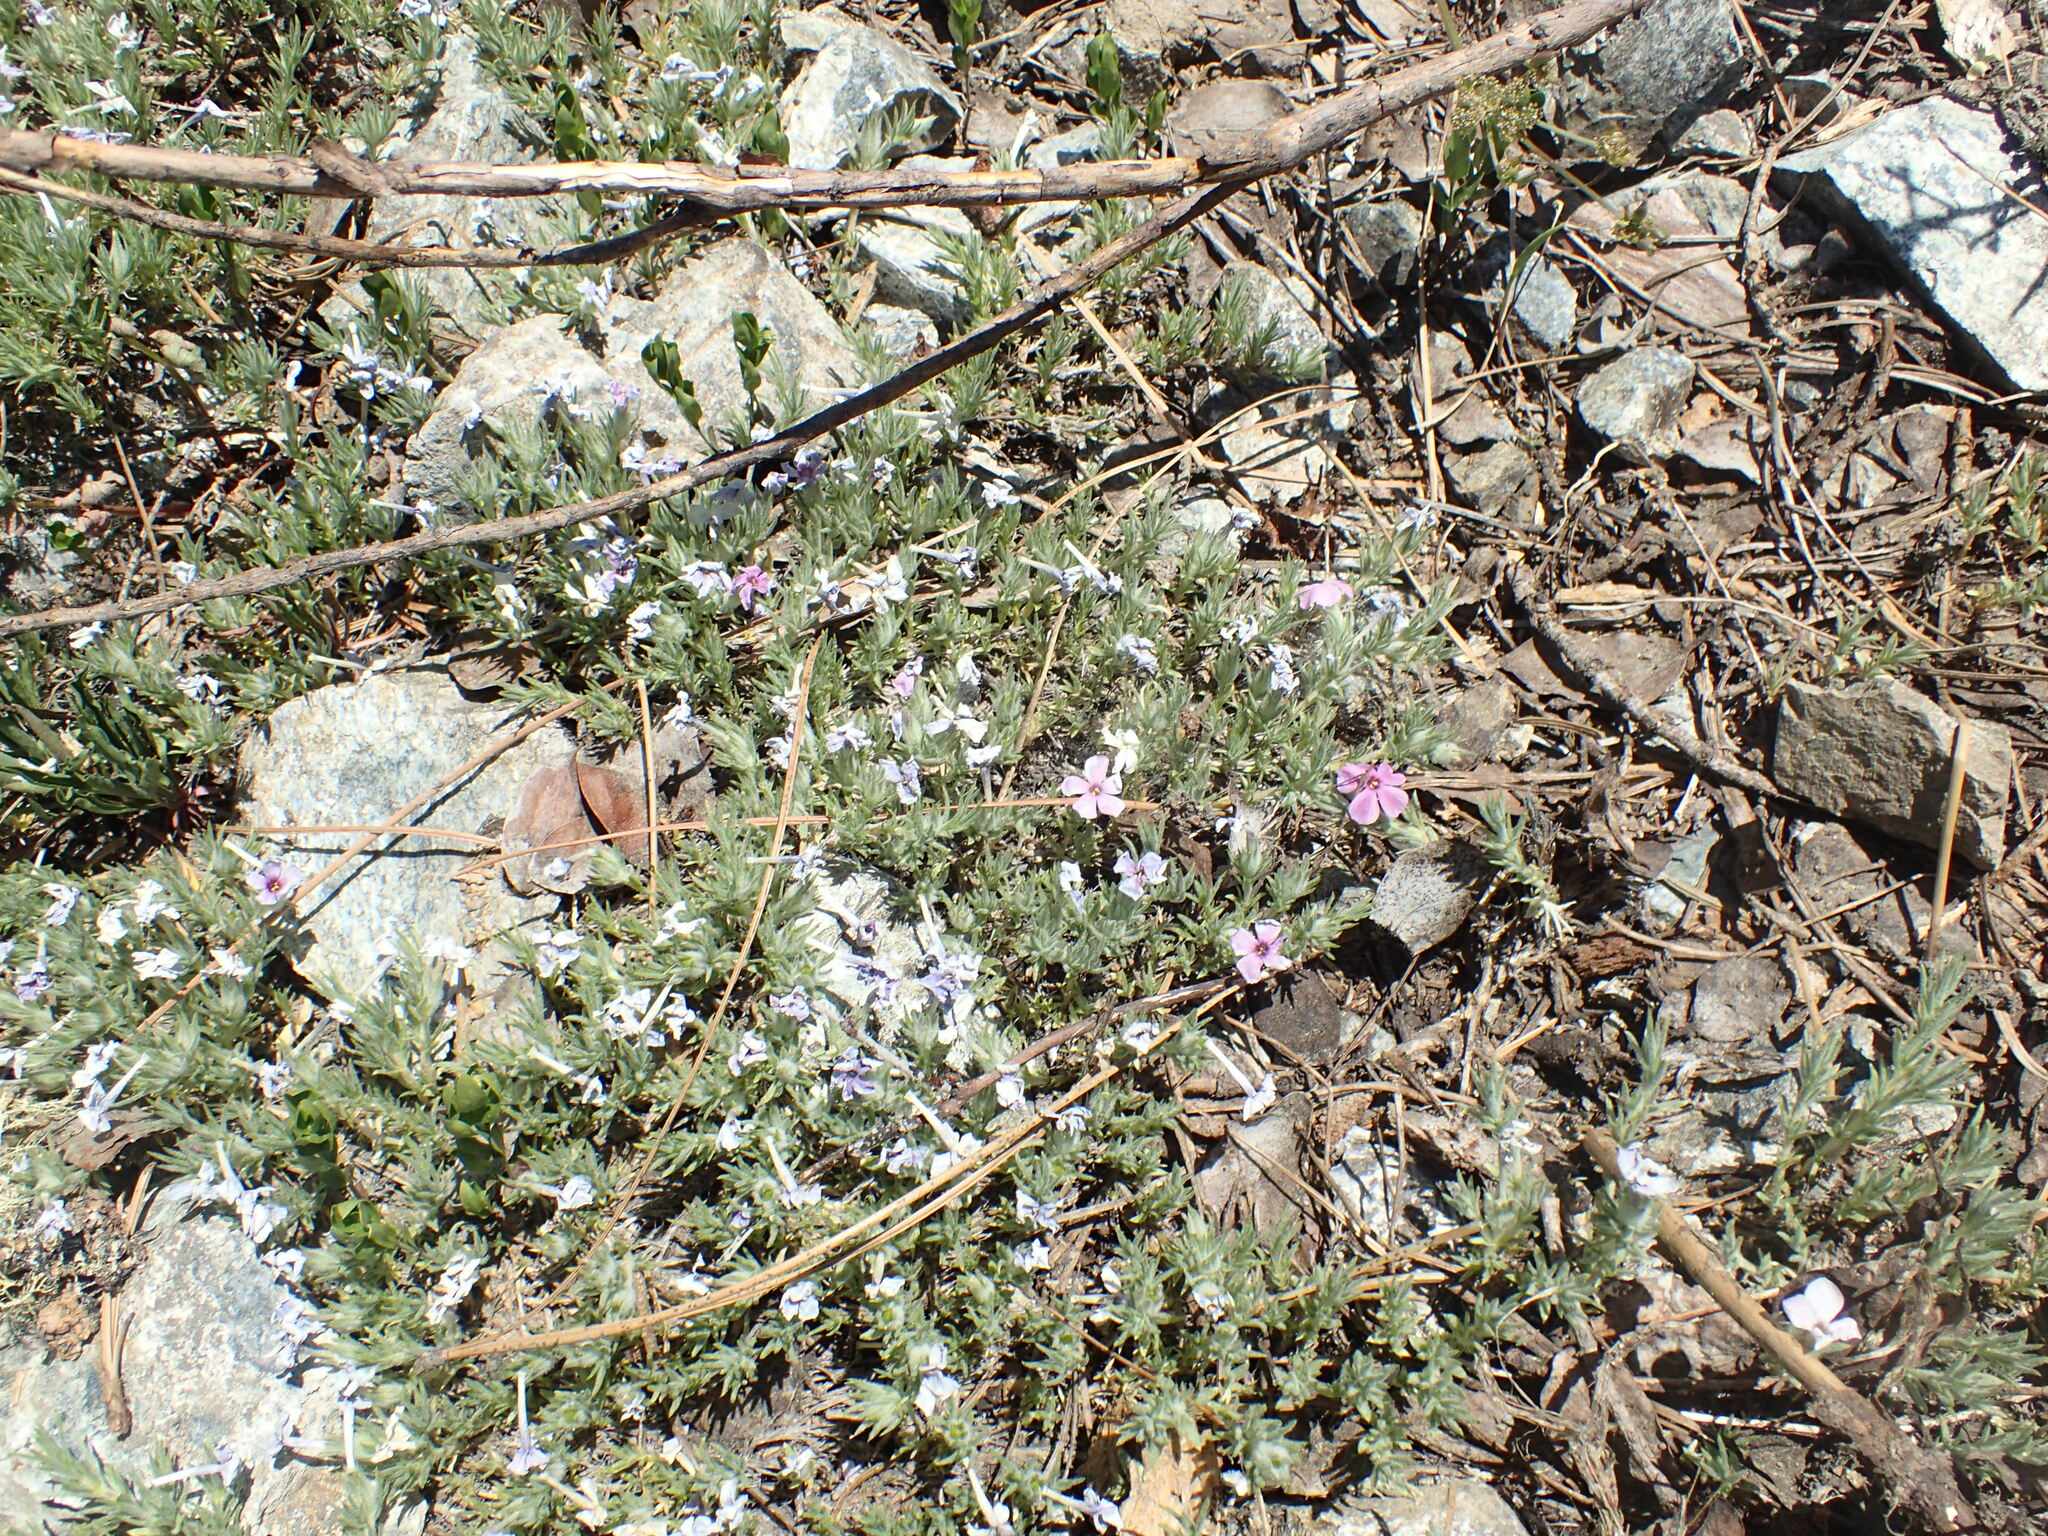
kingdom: Plantae
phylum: Tracheophyta
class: Magnoliopsida
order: Ericales
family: Polemoniaceae
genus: Phlox
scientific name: Phlox diffusa
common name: Mat phlox
